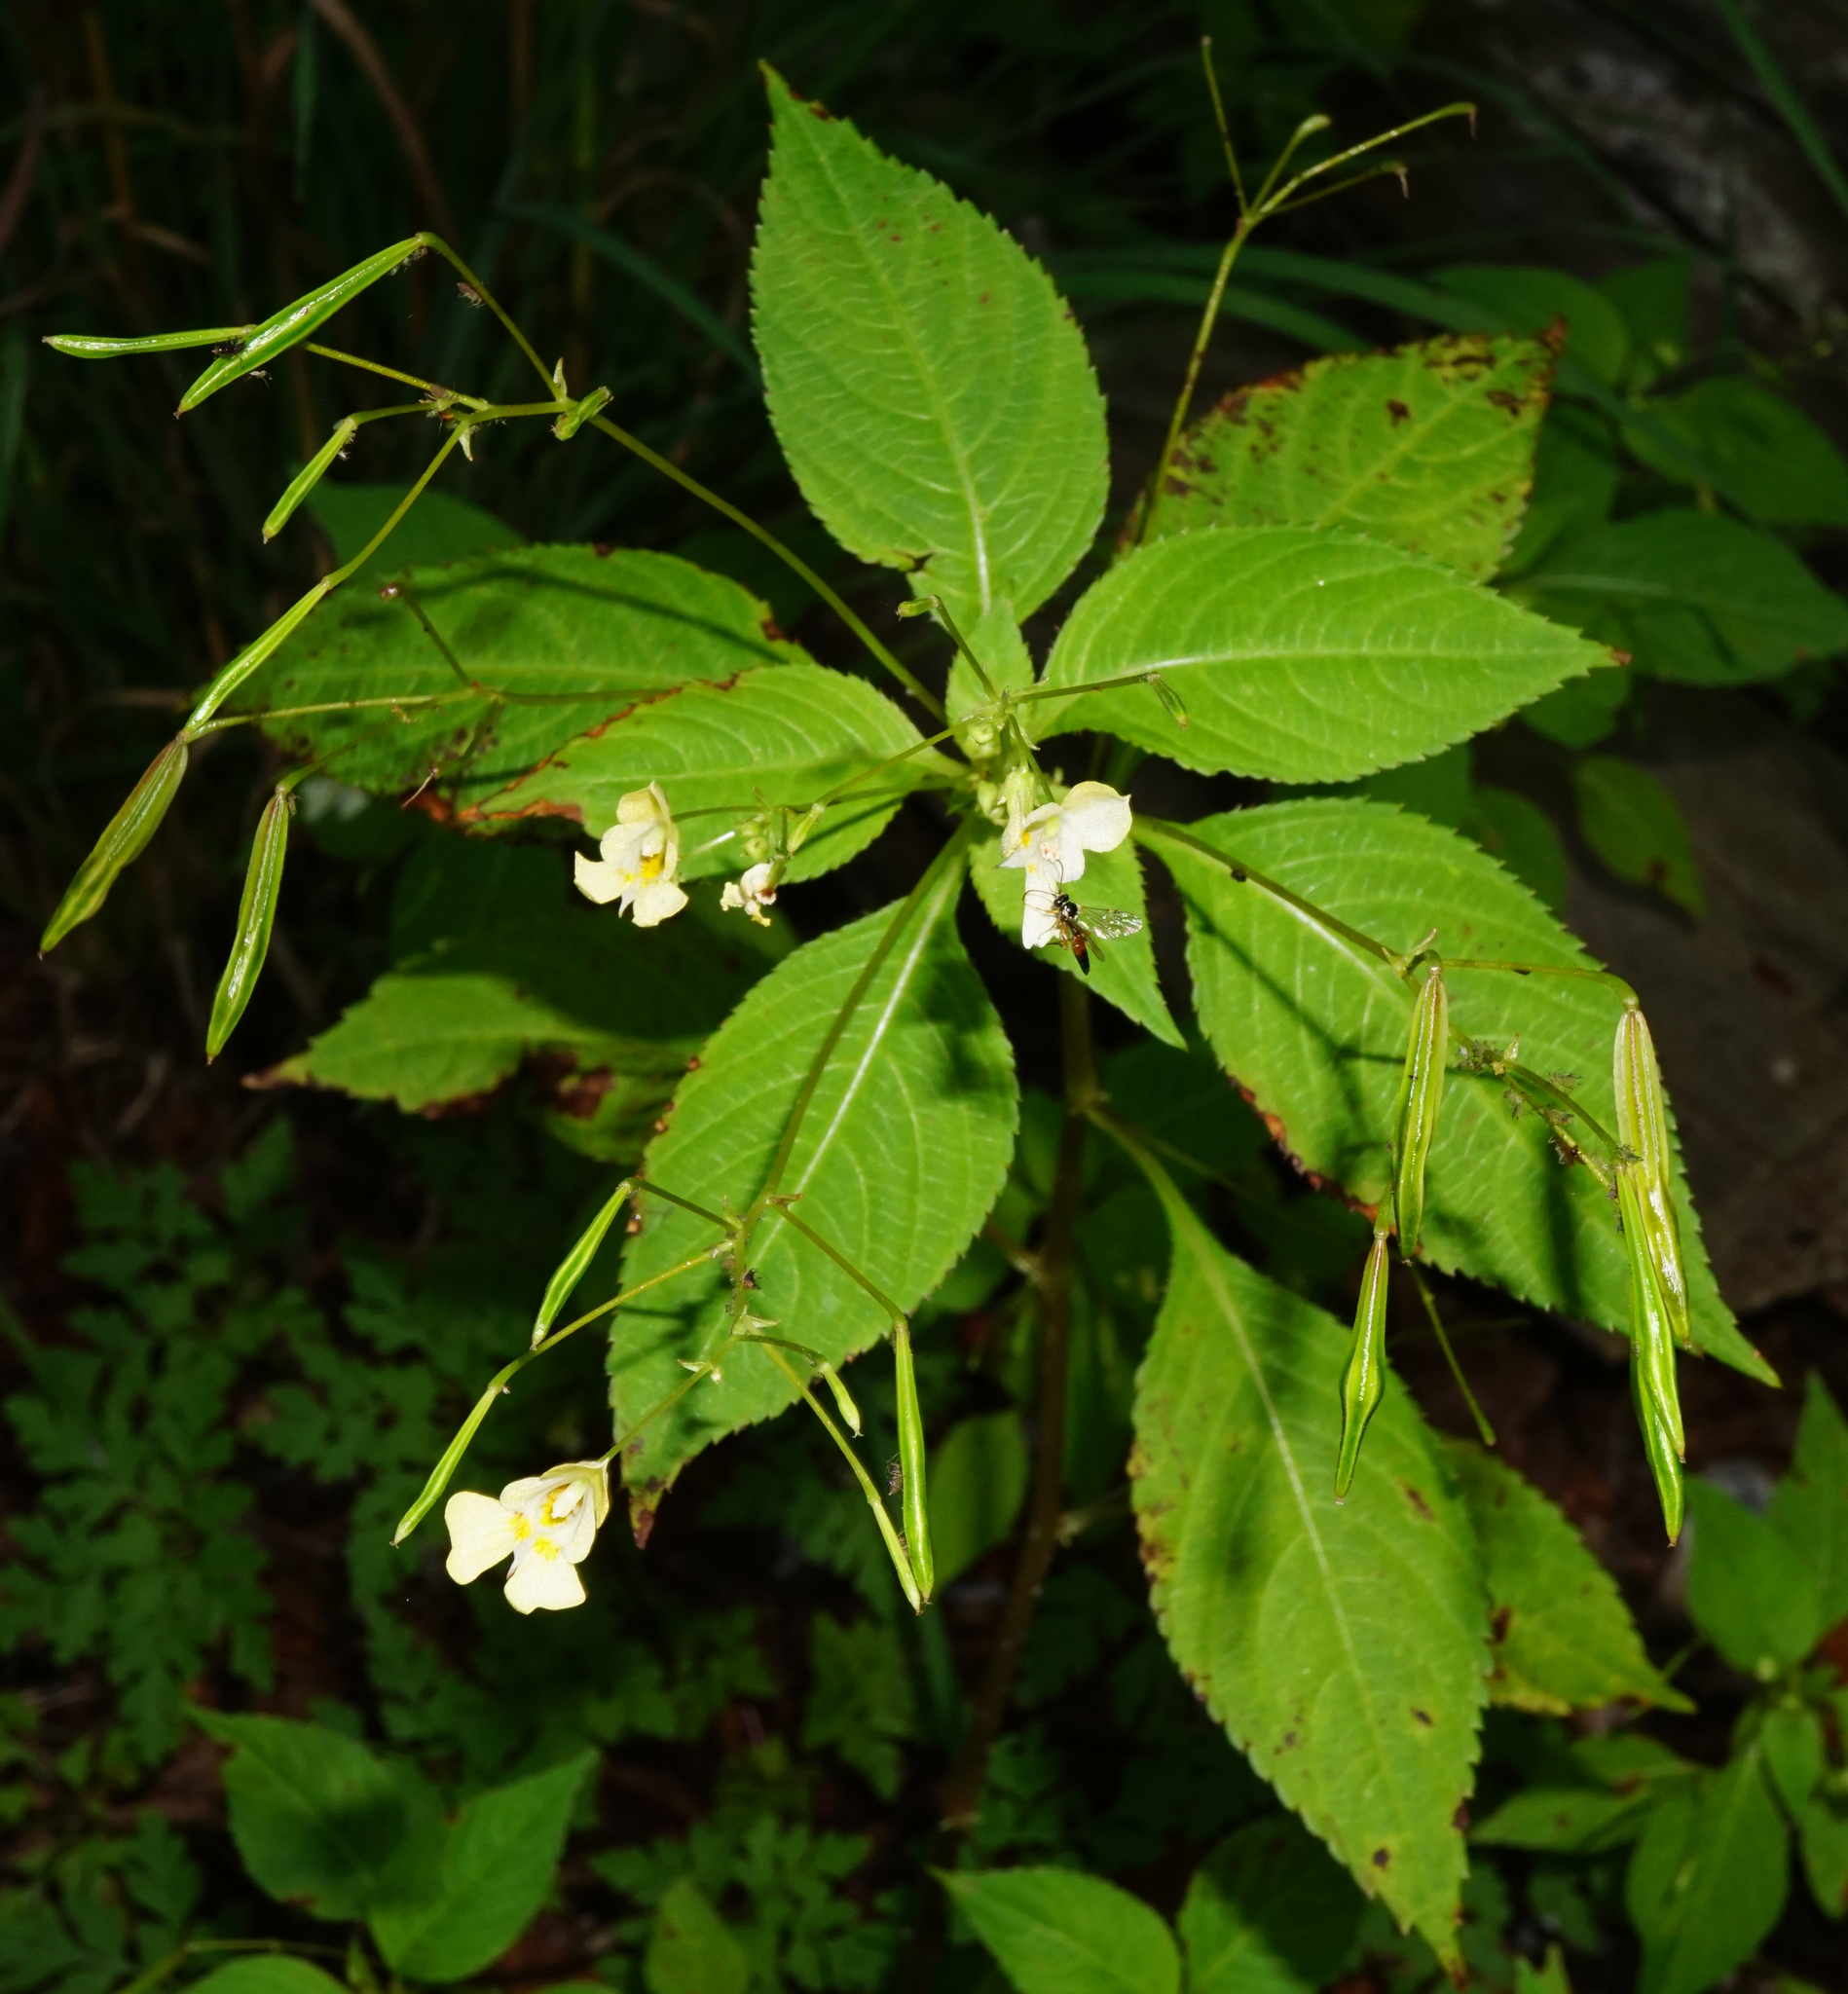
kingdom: Plantae
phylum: Tracheophyta
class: Magnoliopsida
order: Ericales
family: Balsaminaceae
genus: Impatiens
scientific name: Impatiens parviflora
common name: Small balsam
